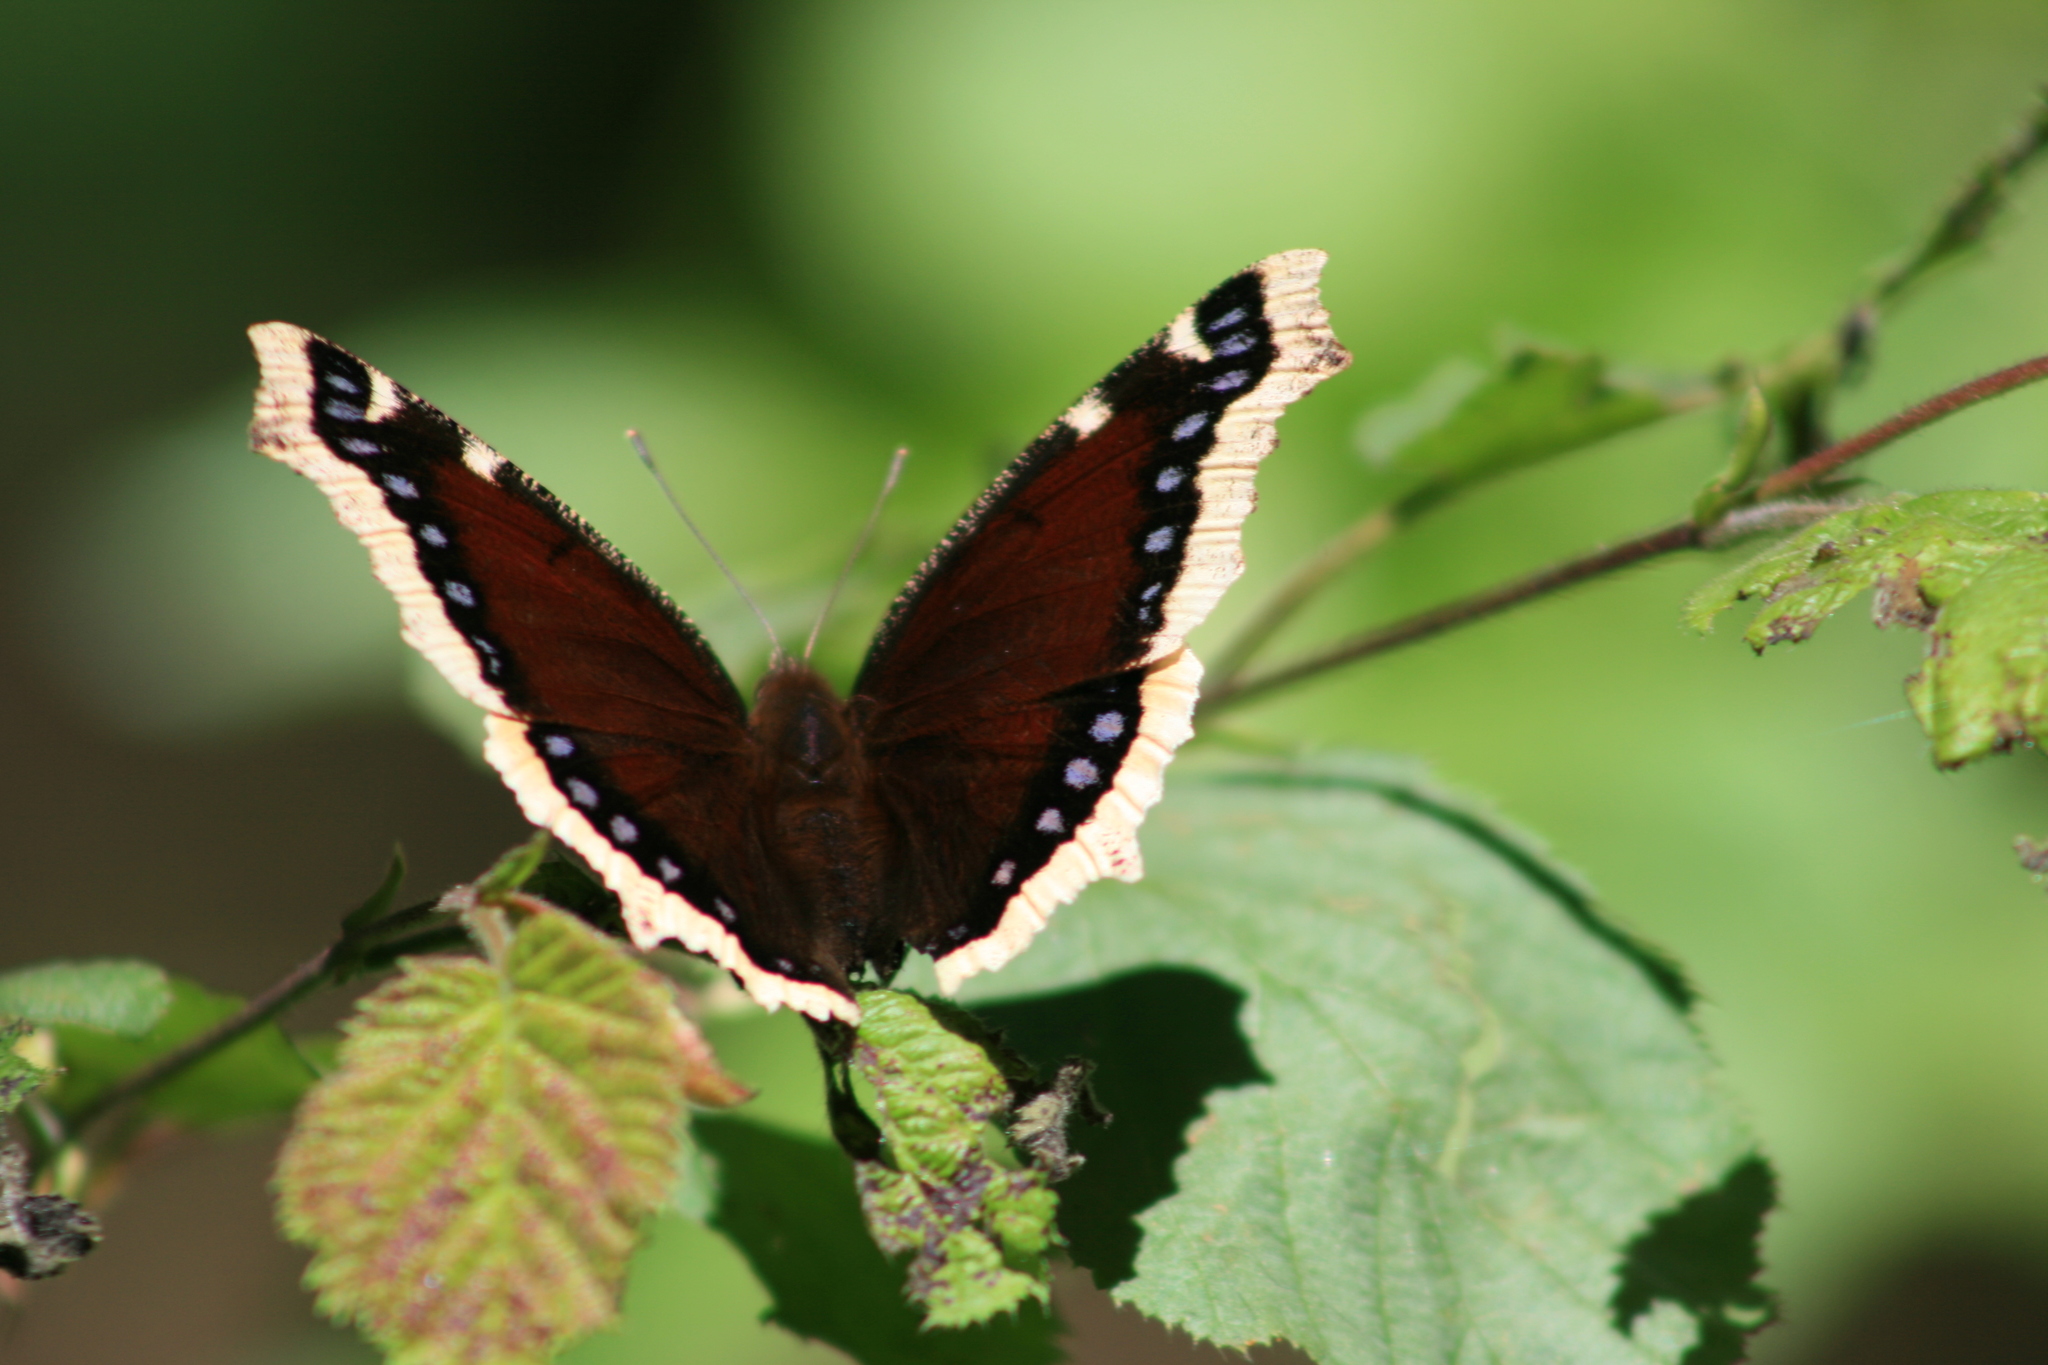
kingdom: Animalia
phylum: Arthropoda
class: Insecta
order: Lepidoptera
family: Nymphalidae
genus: Nymphalis
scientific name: Nymphalis antiopa
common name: Camberwell beauty
